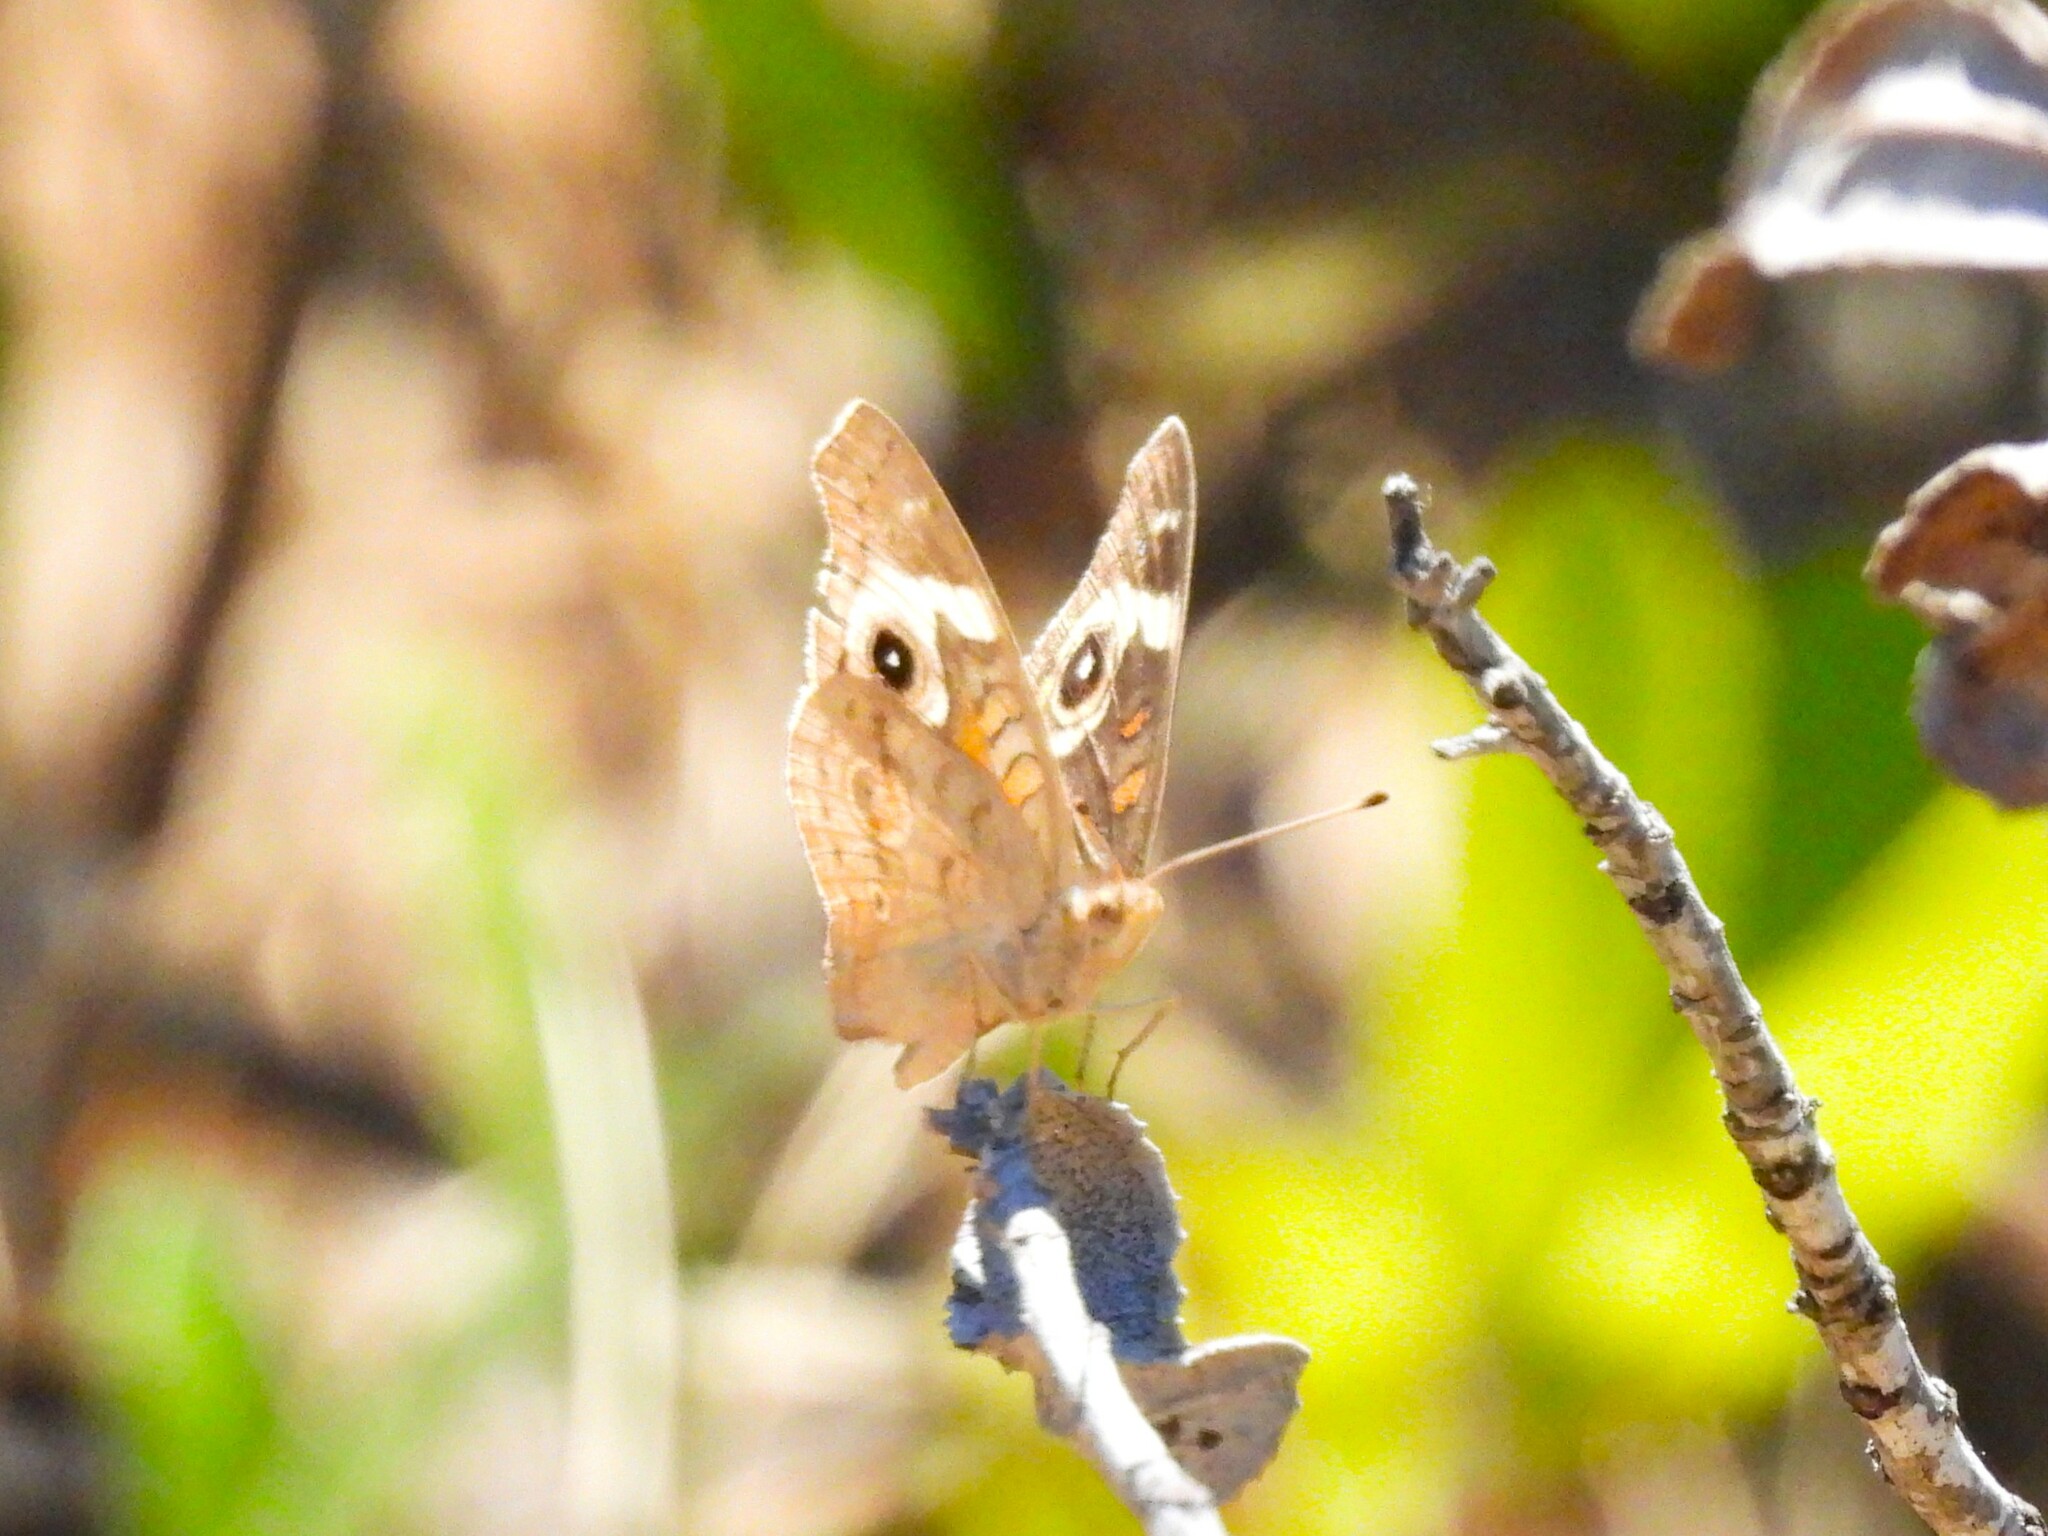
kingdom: Animalia
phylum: Arthropoda
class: Insecta
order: Lepidoptera
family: Nymphalidae
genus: Junonia
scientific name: Junonia grisea
